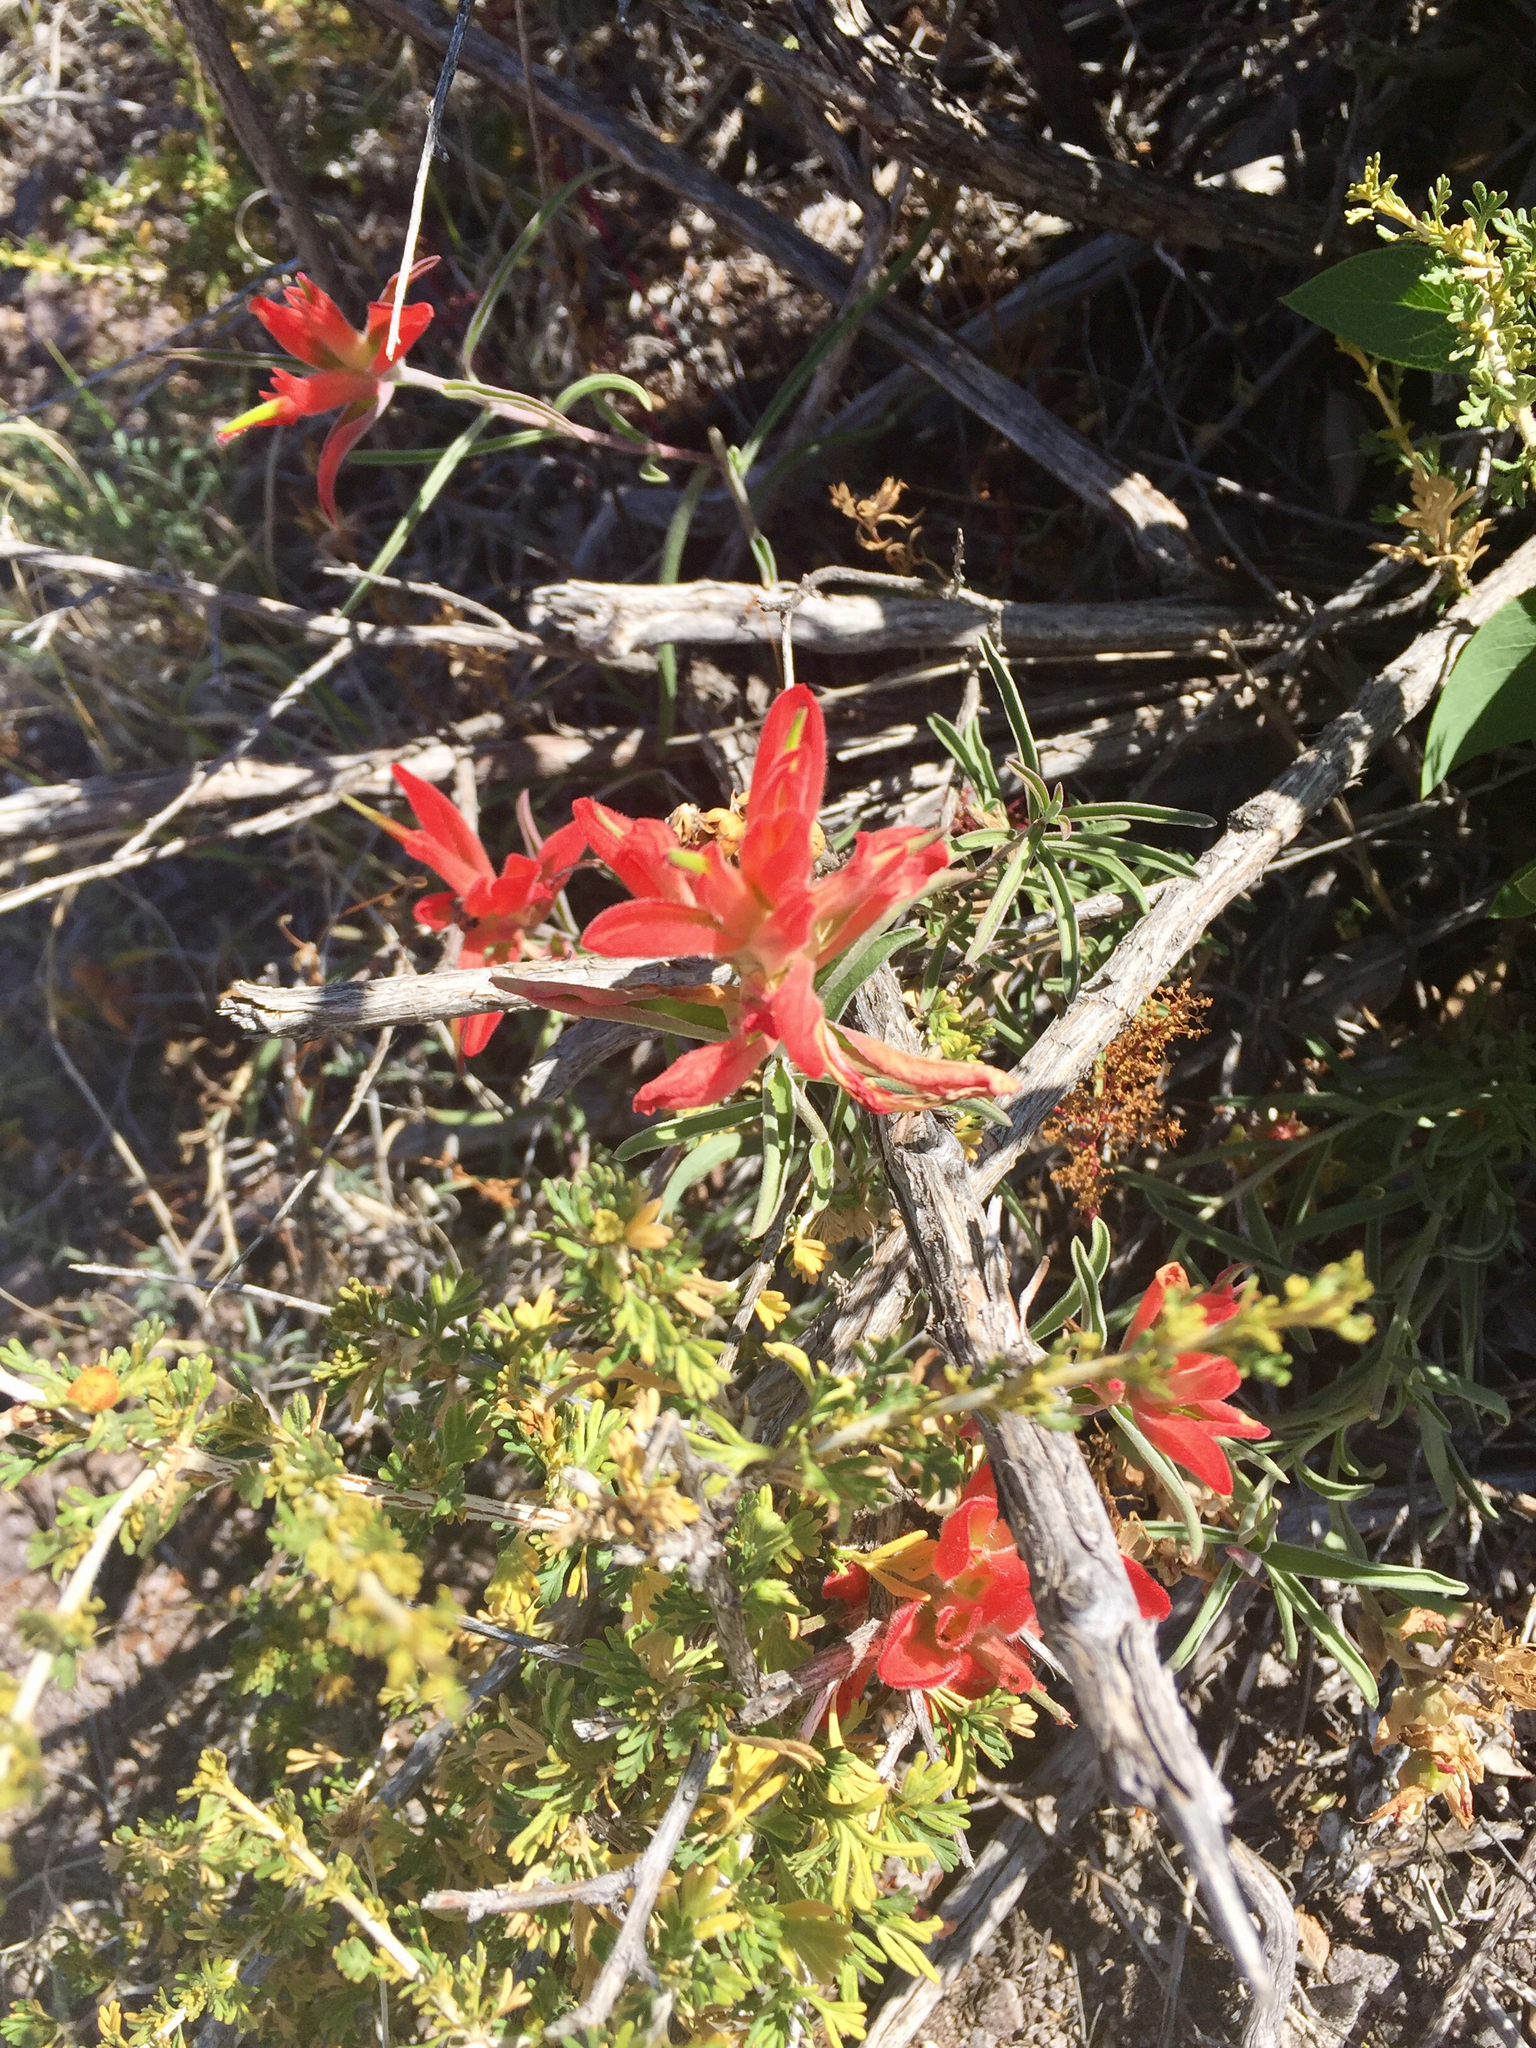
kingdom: Plantae
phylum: Tracheophyta
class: Magnoliopsida
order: Lamiales
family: Orobanchaceae
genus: Castilleja
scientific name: Castilleja integra
